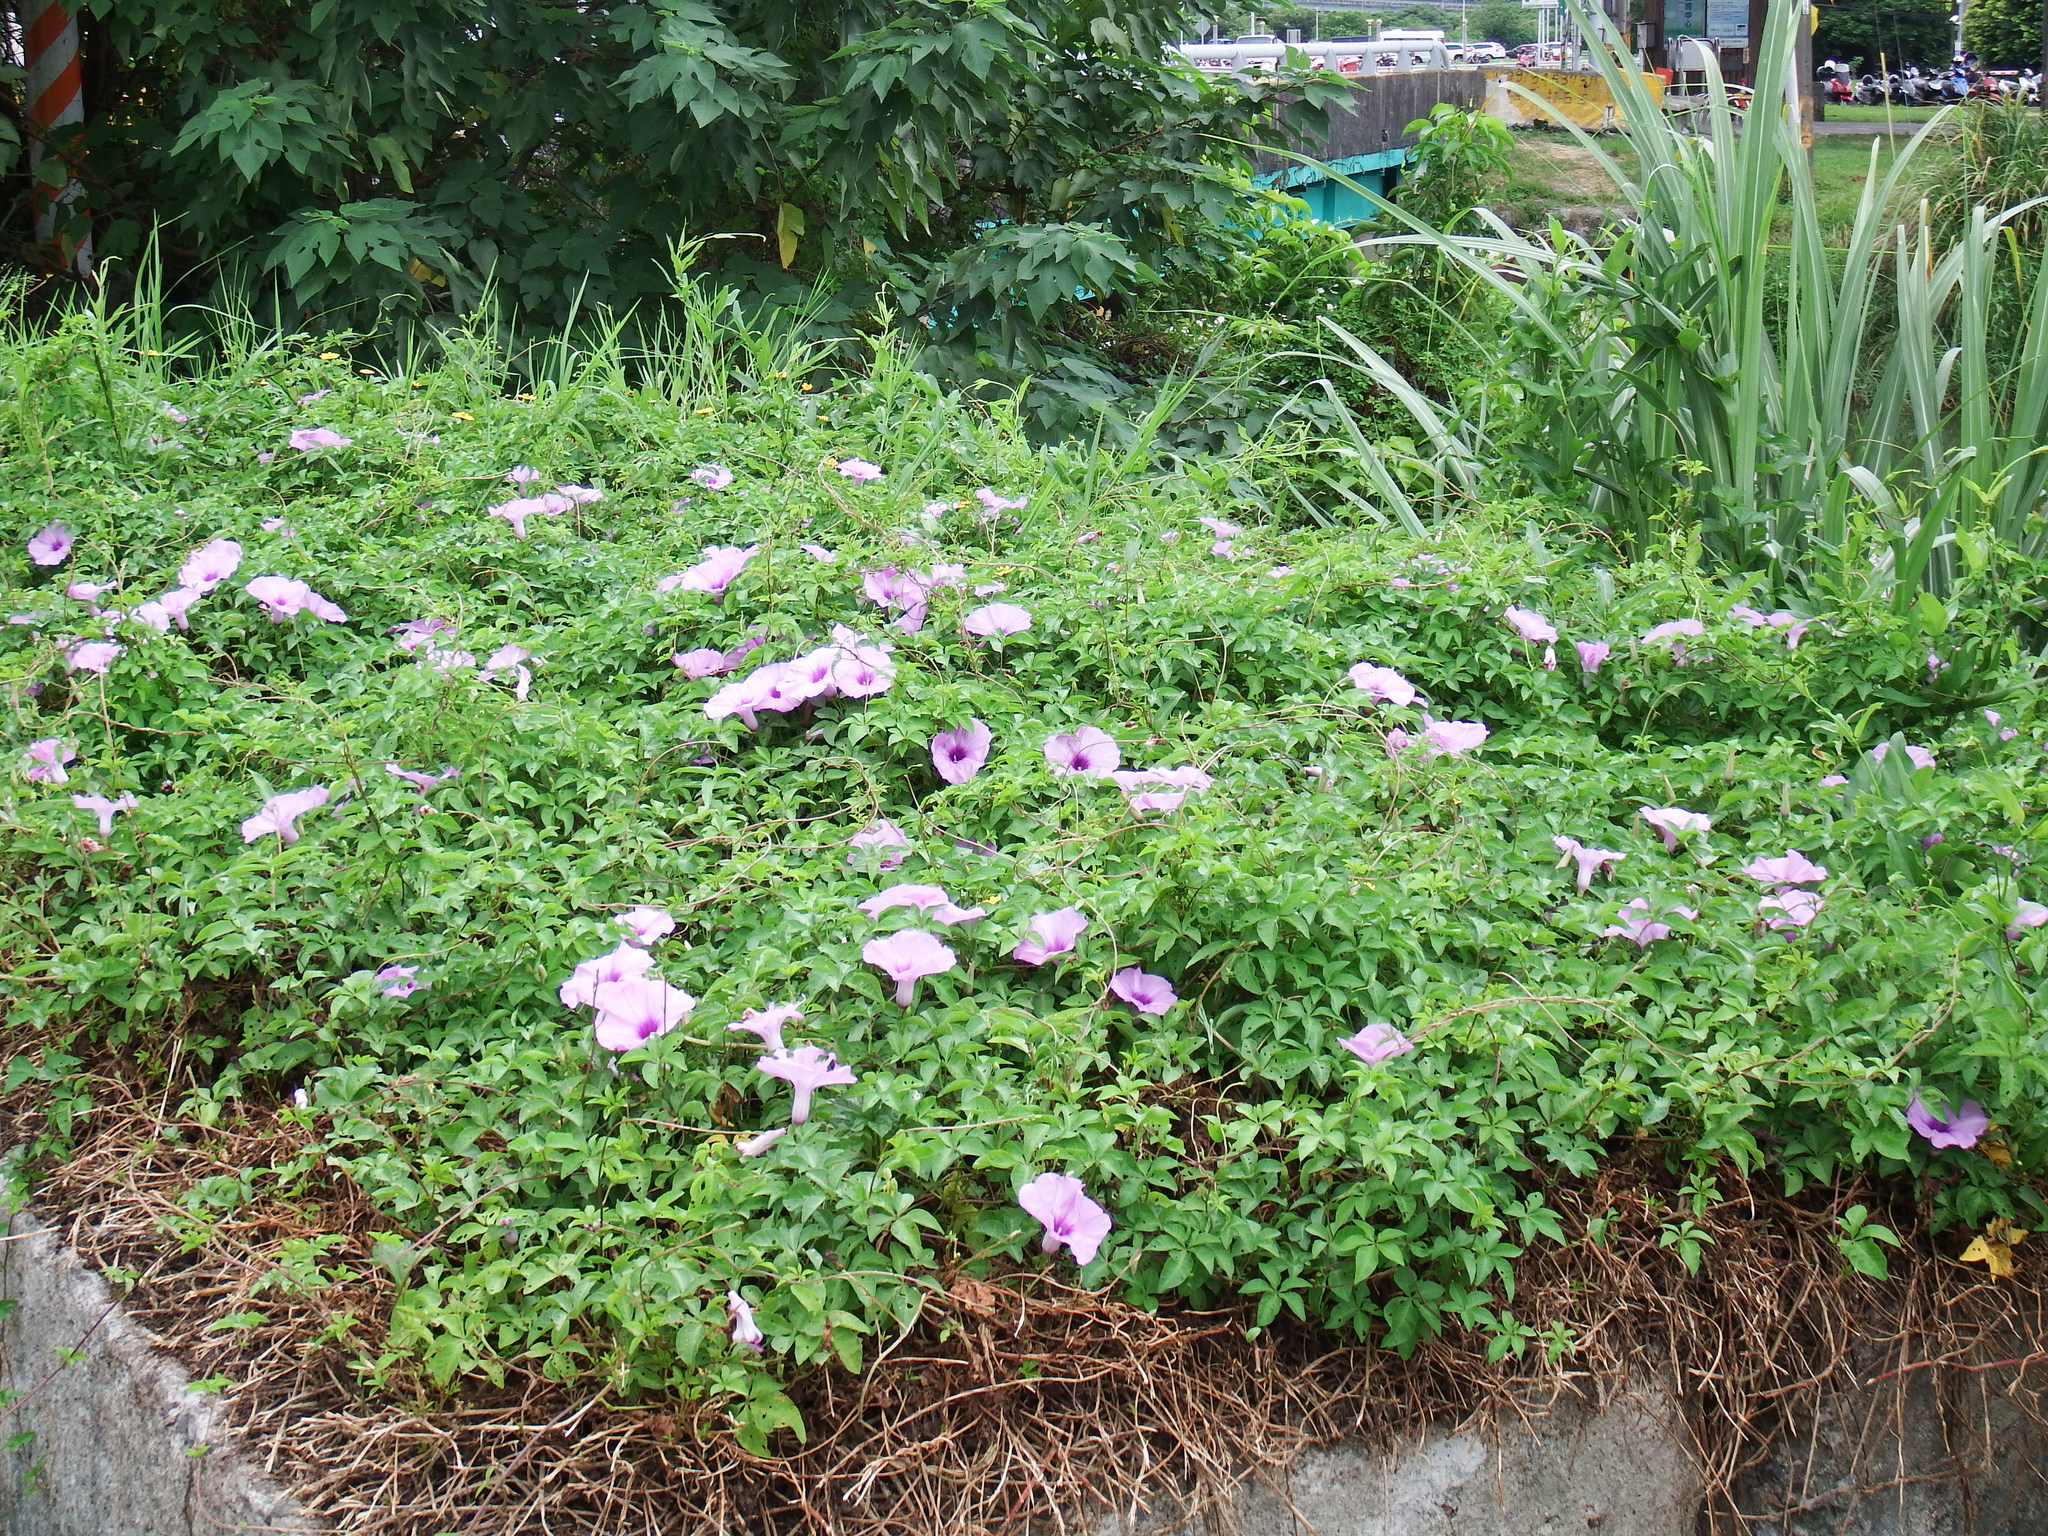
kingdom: Plantae
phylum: Tracheophyta
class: Magnoliopsida
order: Solanales
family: Convolvulaceae
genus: Ipomoea
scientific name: Ipomoea cairica
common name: Mile a minute vine
